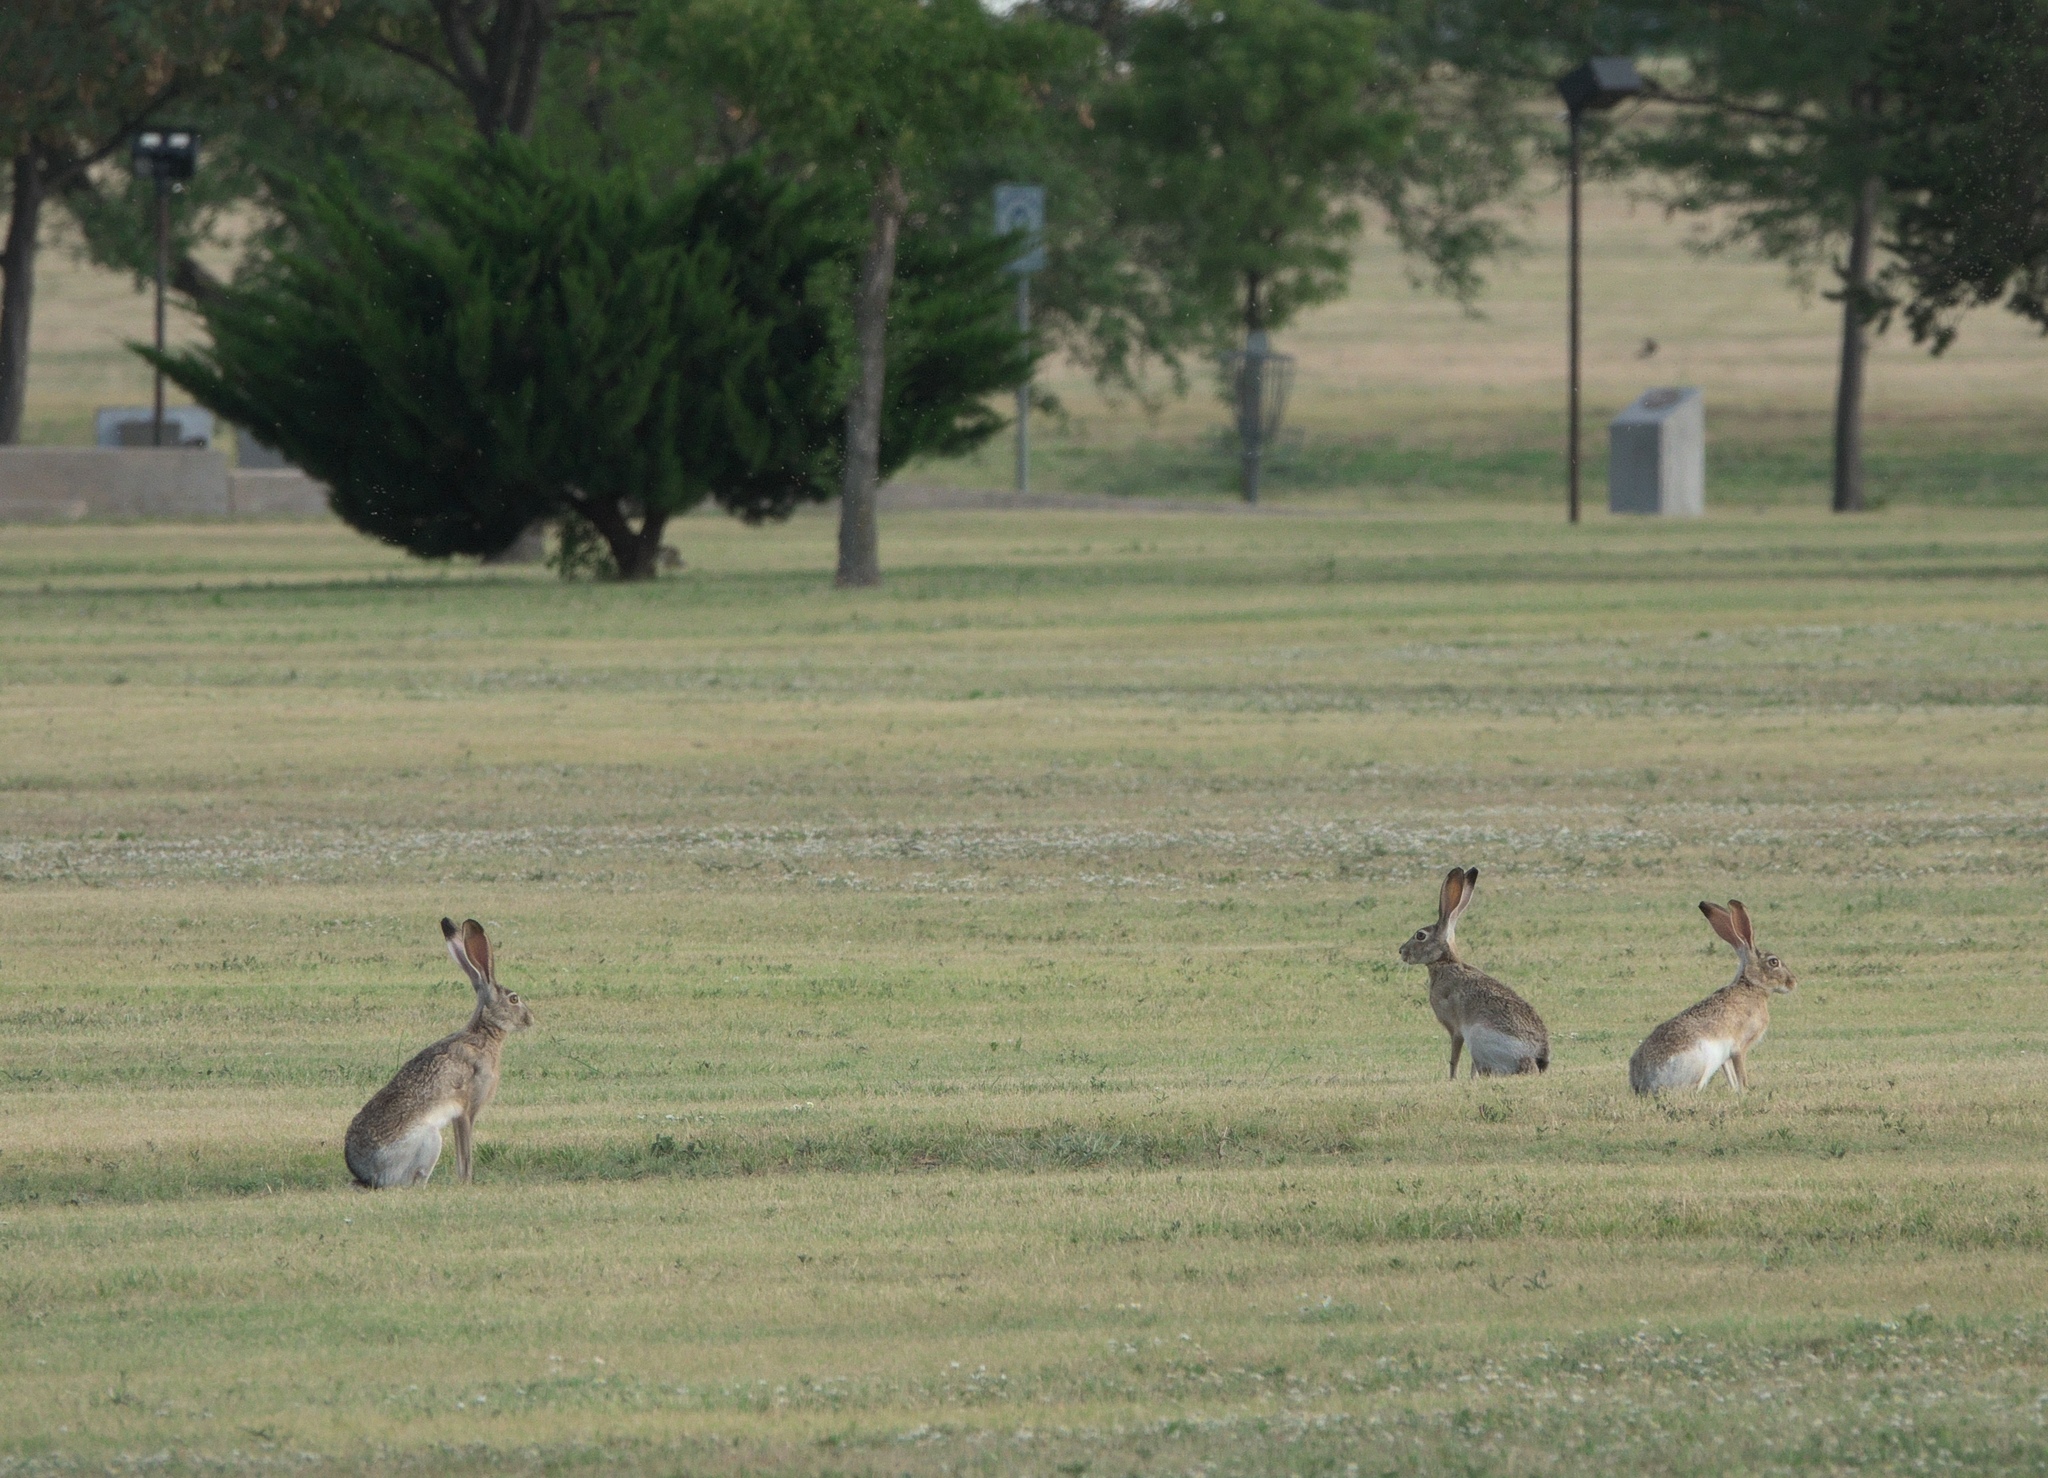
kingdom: Animalia
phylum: Chordata
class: Mammalia
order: Lagomorpha
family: Leporidae
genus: Lepus
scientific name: Lepus californicus
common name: Black-tailed jackrabbit
